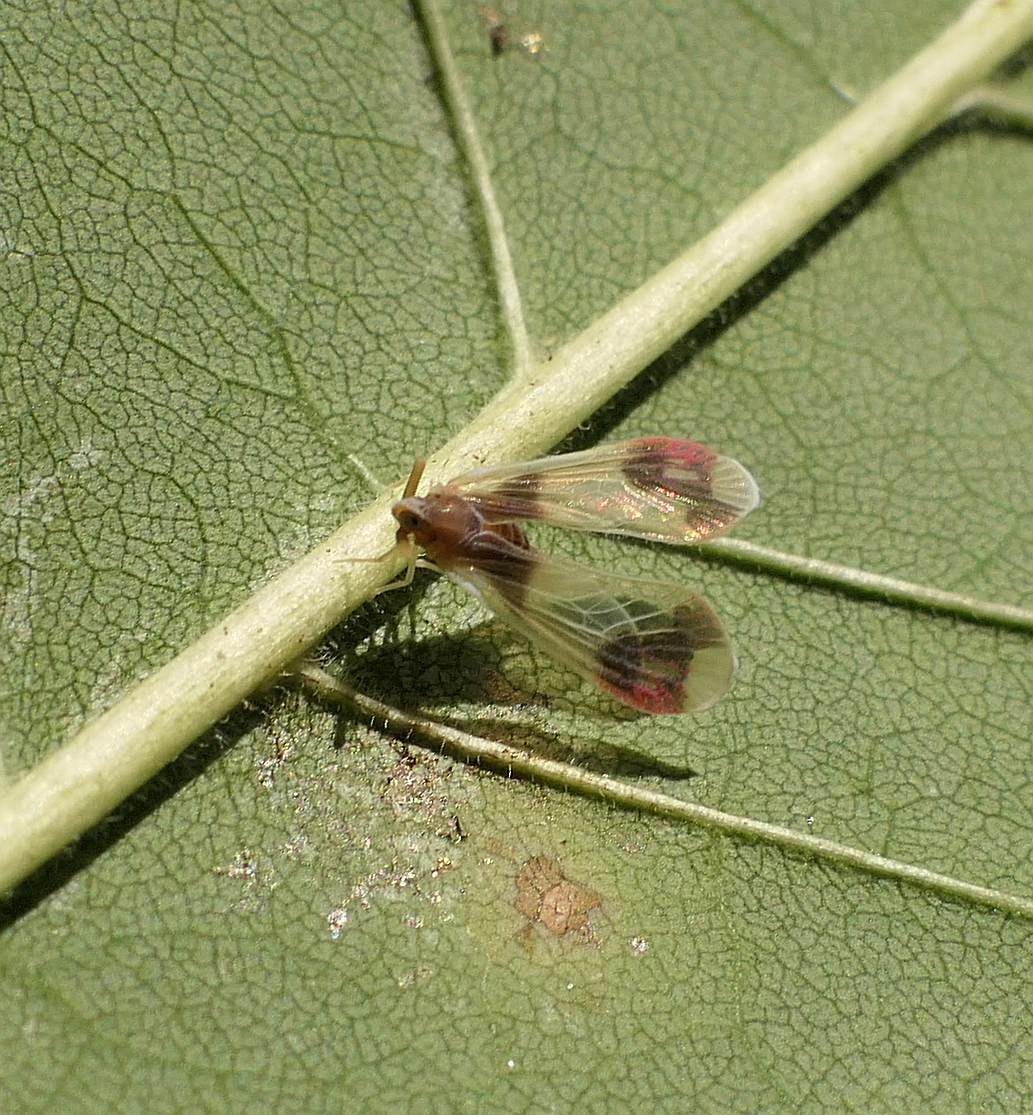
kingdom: Animalia
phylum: Arthropoda
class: Insecta
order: Hemiptera
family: Derbidae
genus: Anotia
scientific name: Anotia uhleri
